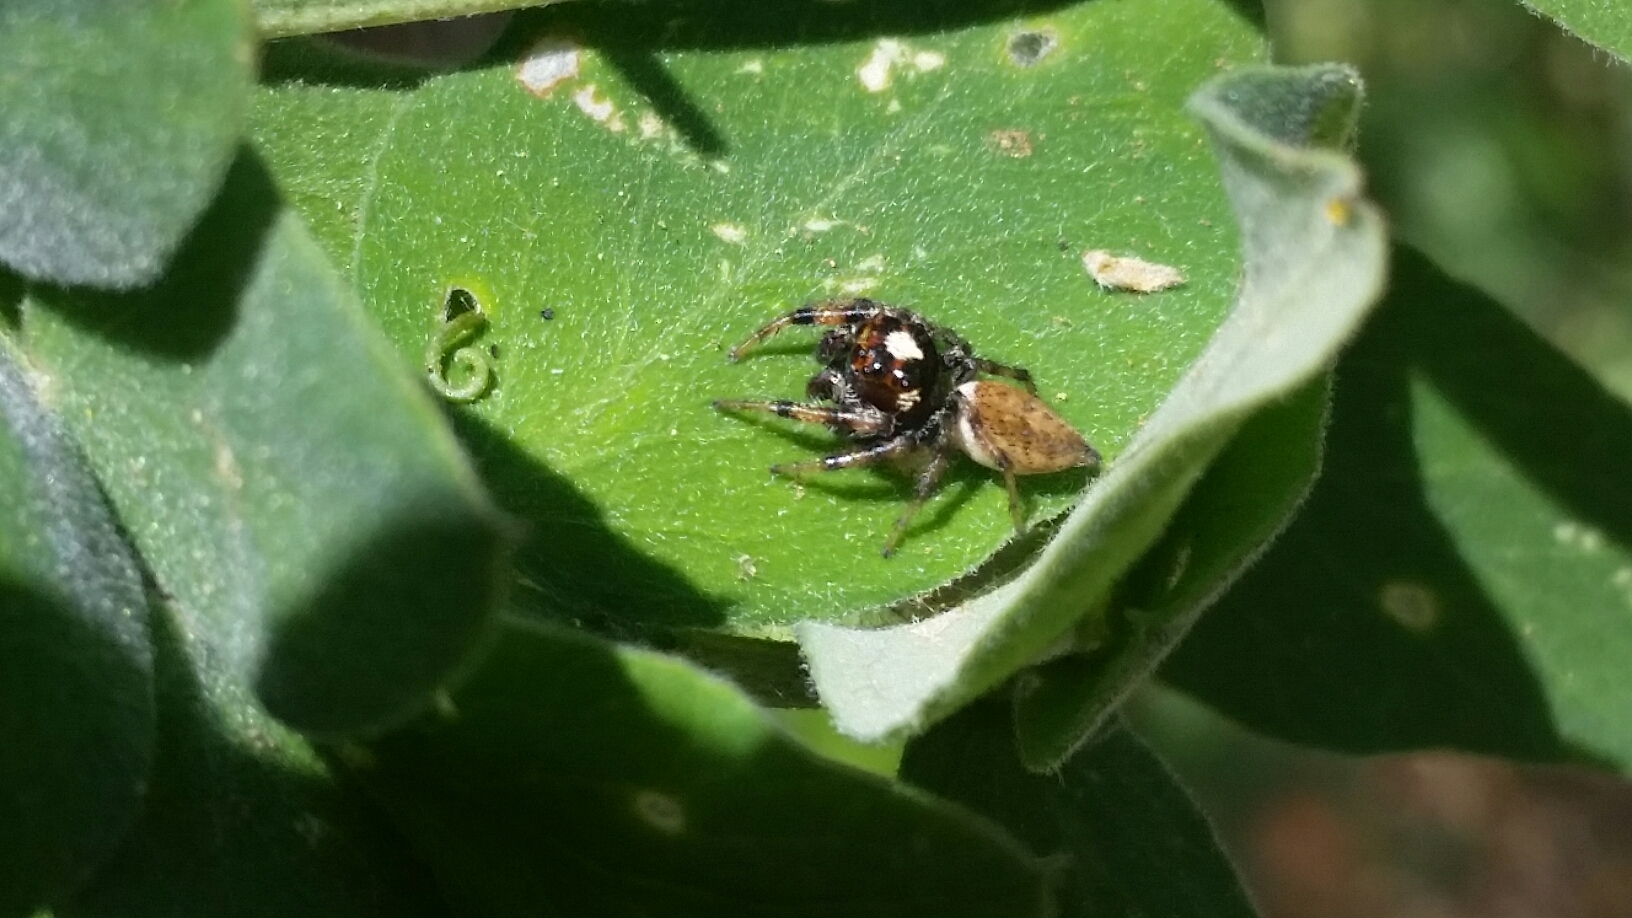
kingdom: Animalia
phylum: Arthropoda
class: Arachnida
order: Araneae
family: Salticidae
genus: Colonus
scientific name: Colonus hesperus
